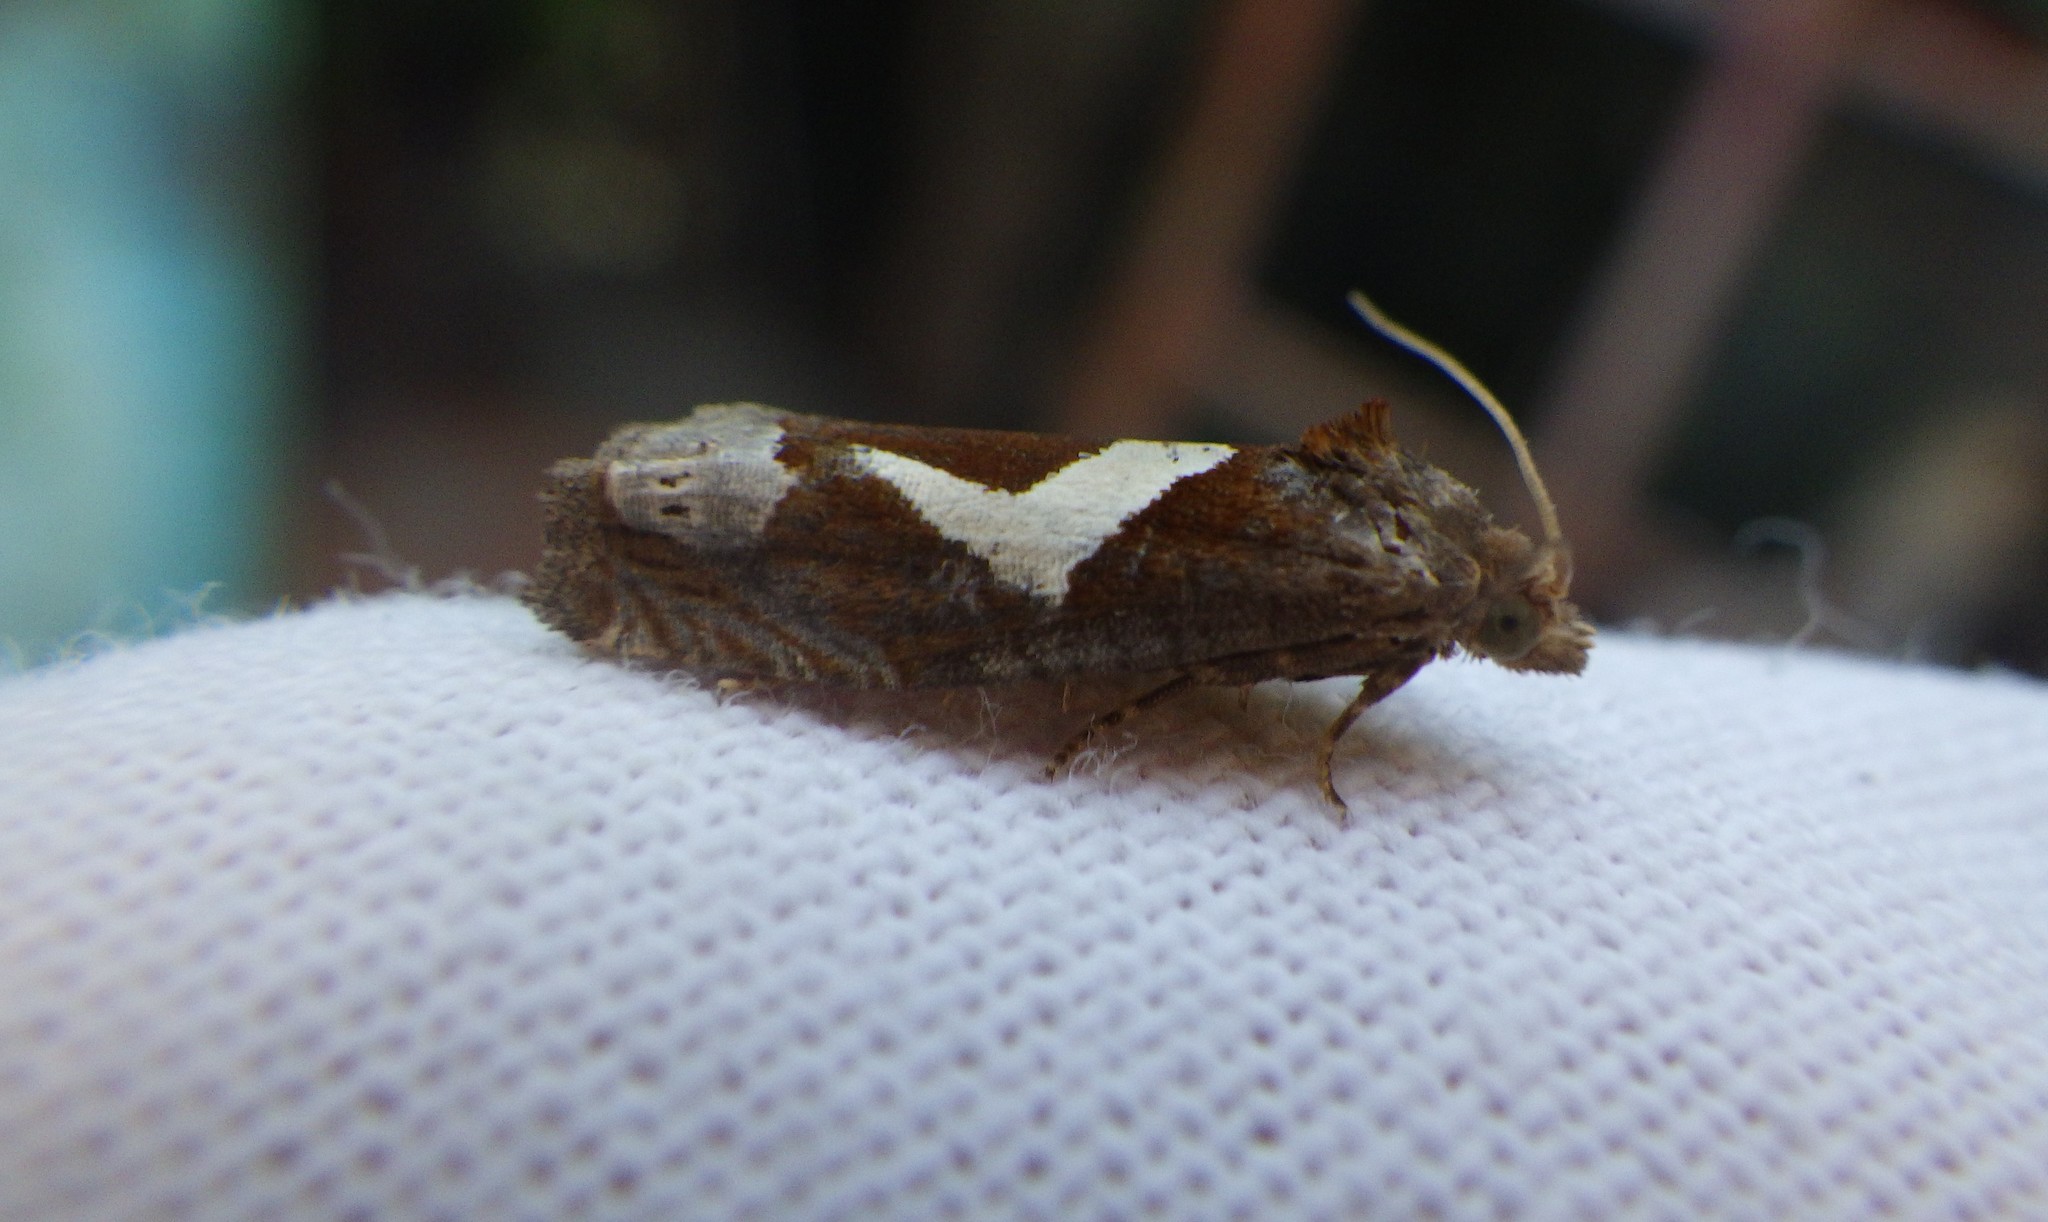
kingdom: Animalia
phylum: Arthropoda
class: Insecta
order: Lepidoptera
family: Tortricidae
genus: Epiblema
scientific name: Epiblema foenella
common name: White-foot bell
